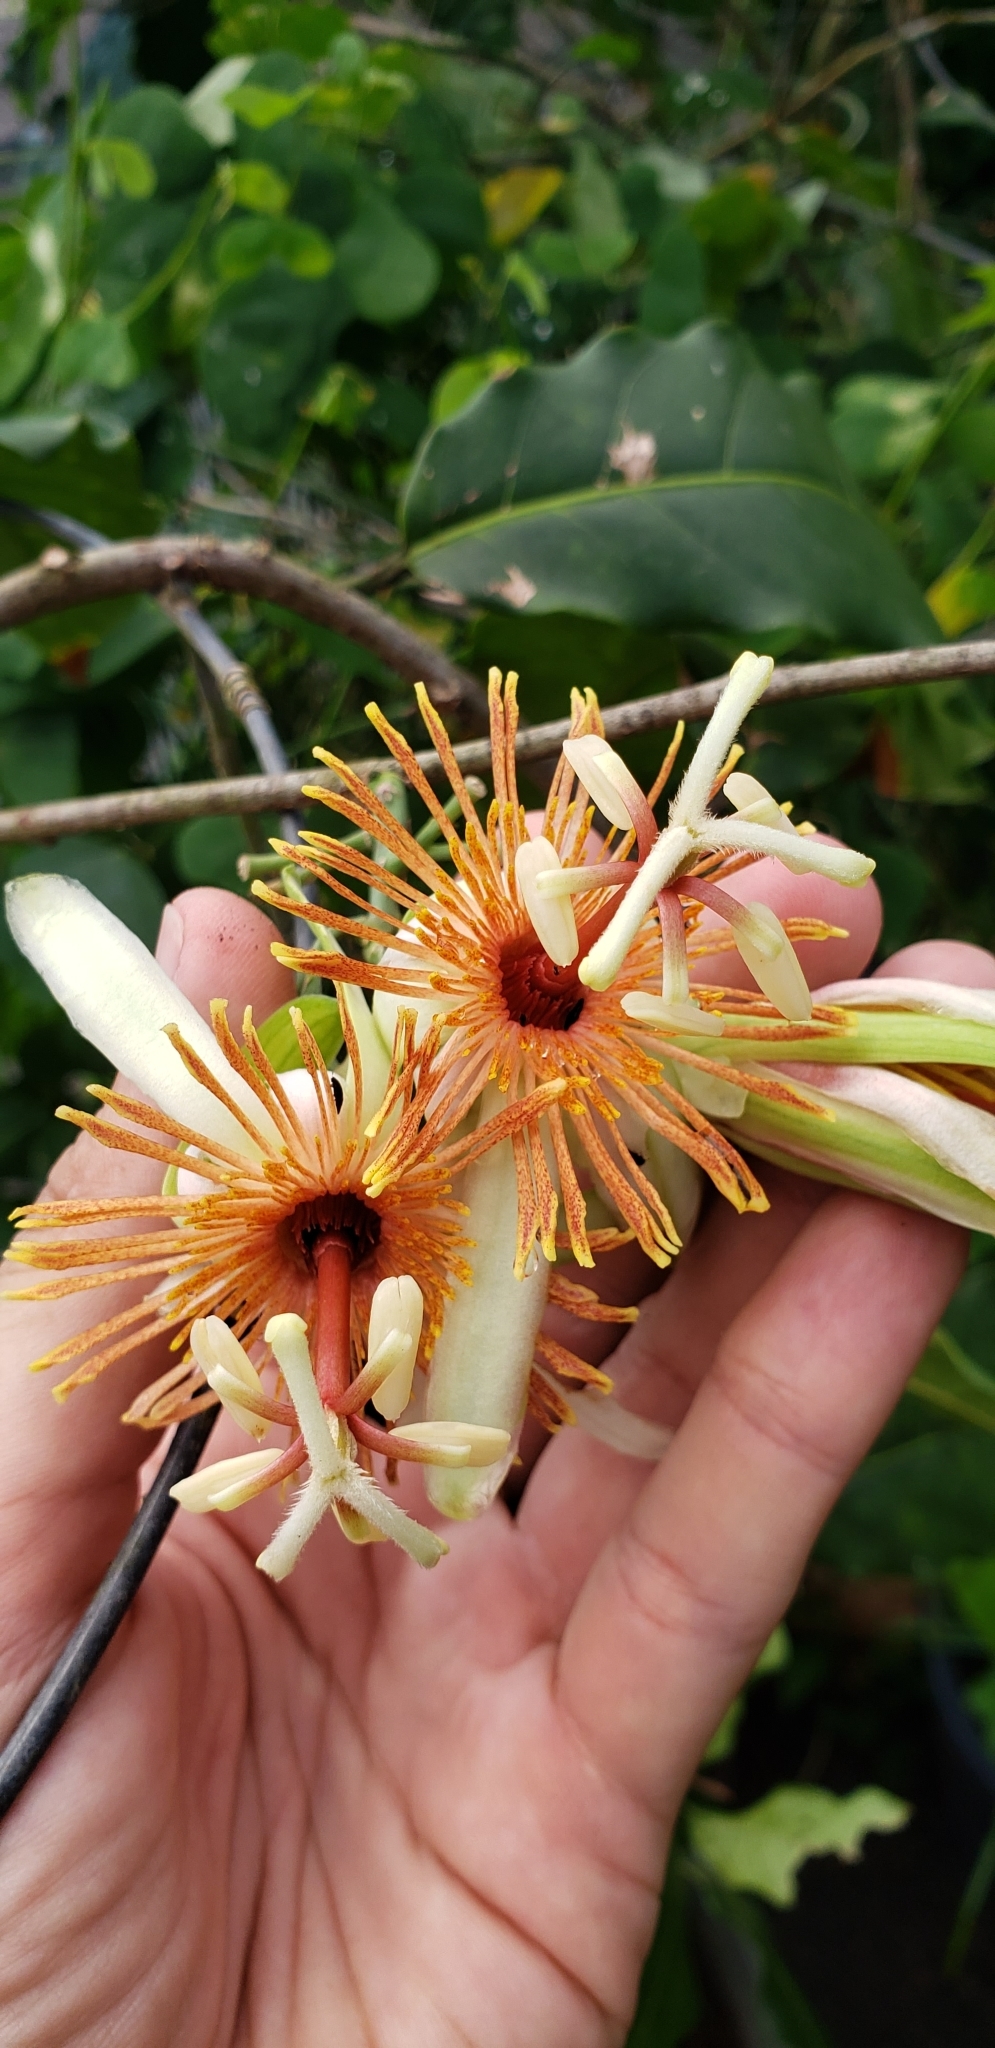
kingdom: Plantae
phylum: Tracheophyta
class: Magnoliopsida
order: Malpighiales
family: Passifloraceae
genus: Passiflora
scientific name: Passiflora pittieri
